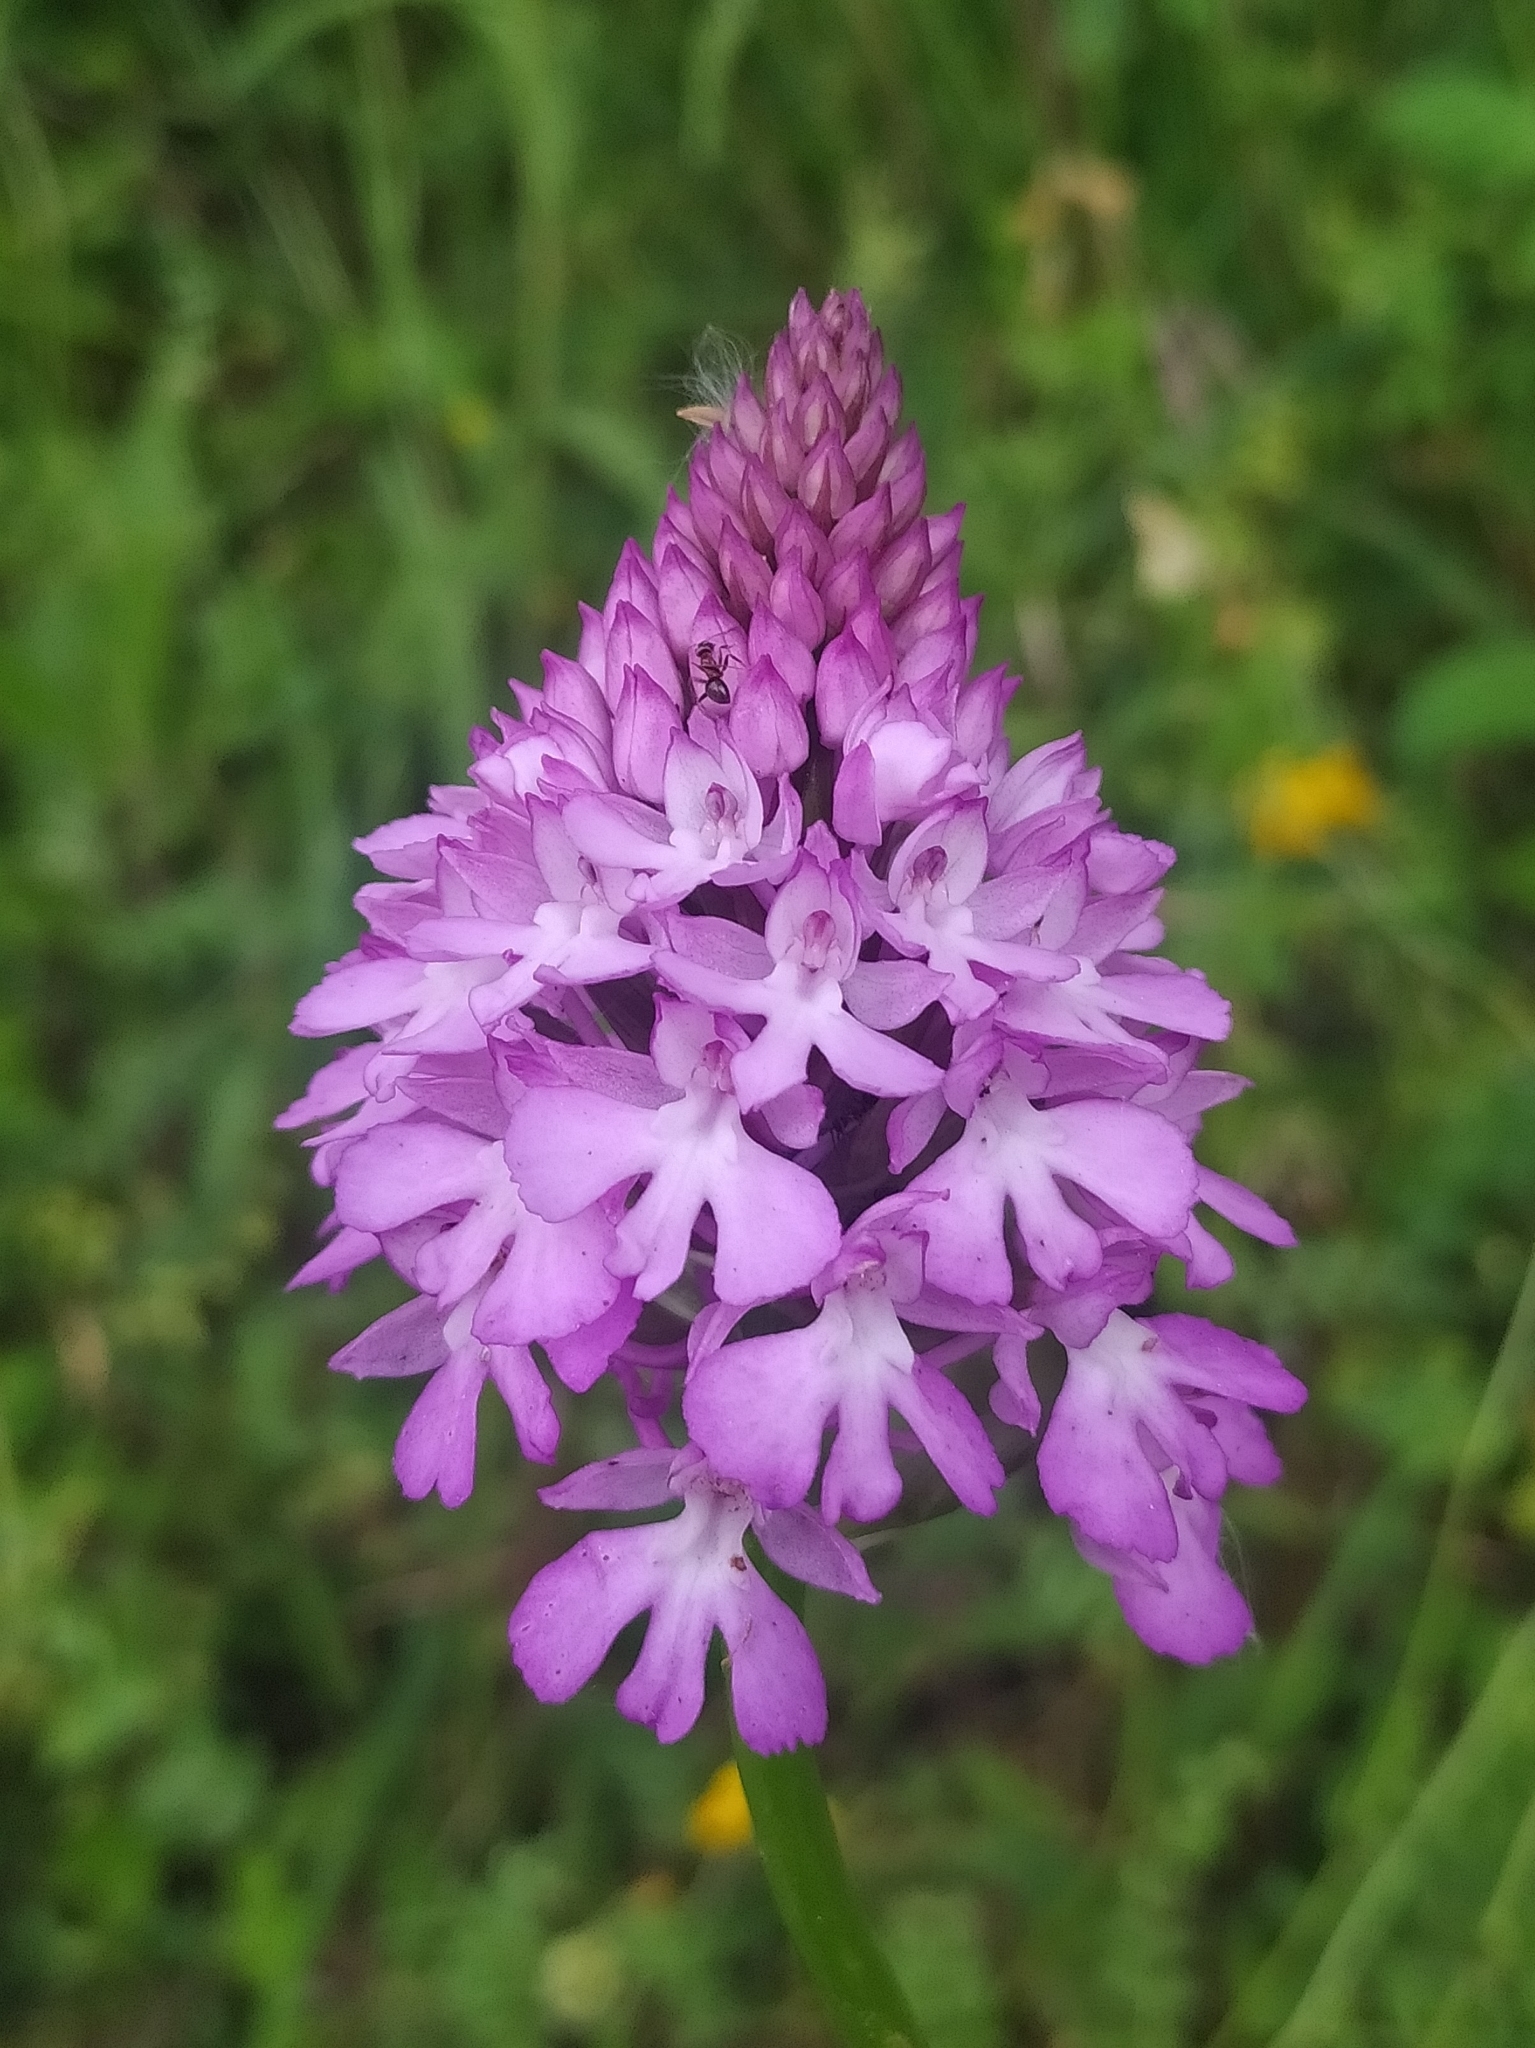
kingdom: Plantae
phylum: Tracheophyta
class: Liliopsida
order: Asparagales
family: Orchidaceae
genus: Anacamptis
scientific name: Anacamptis pyramidalis
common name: Pyramidal orchid
